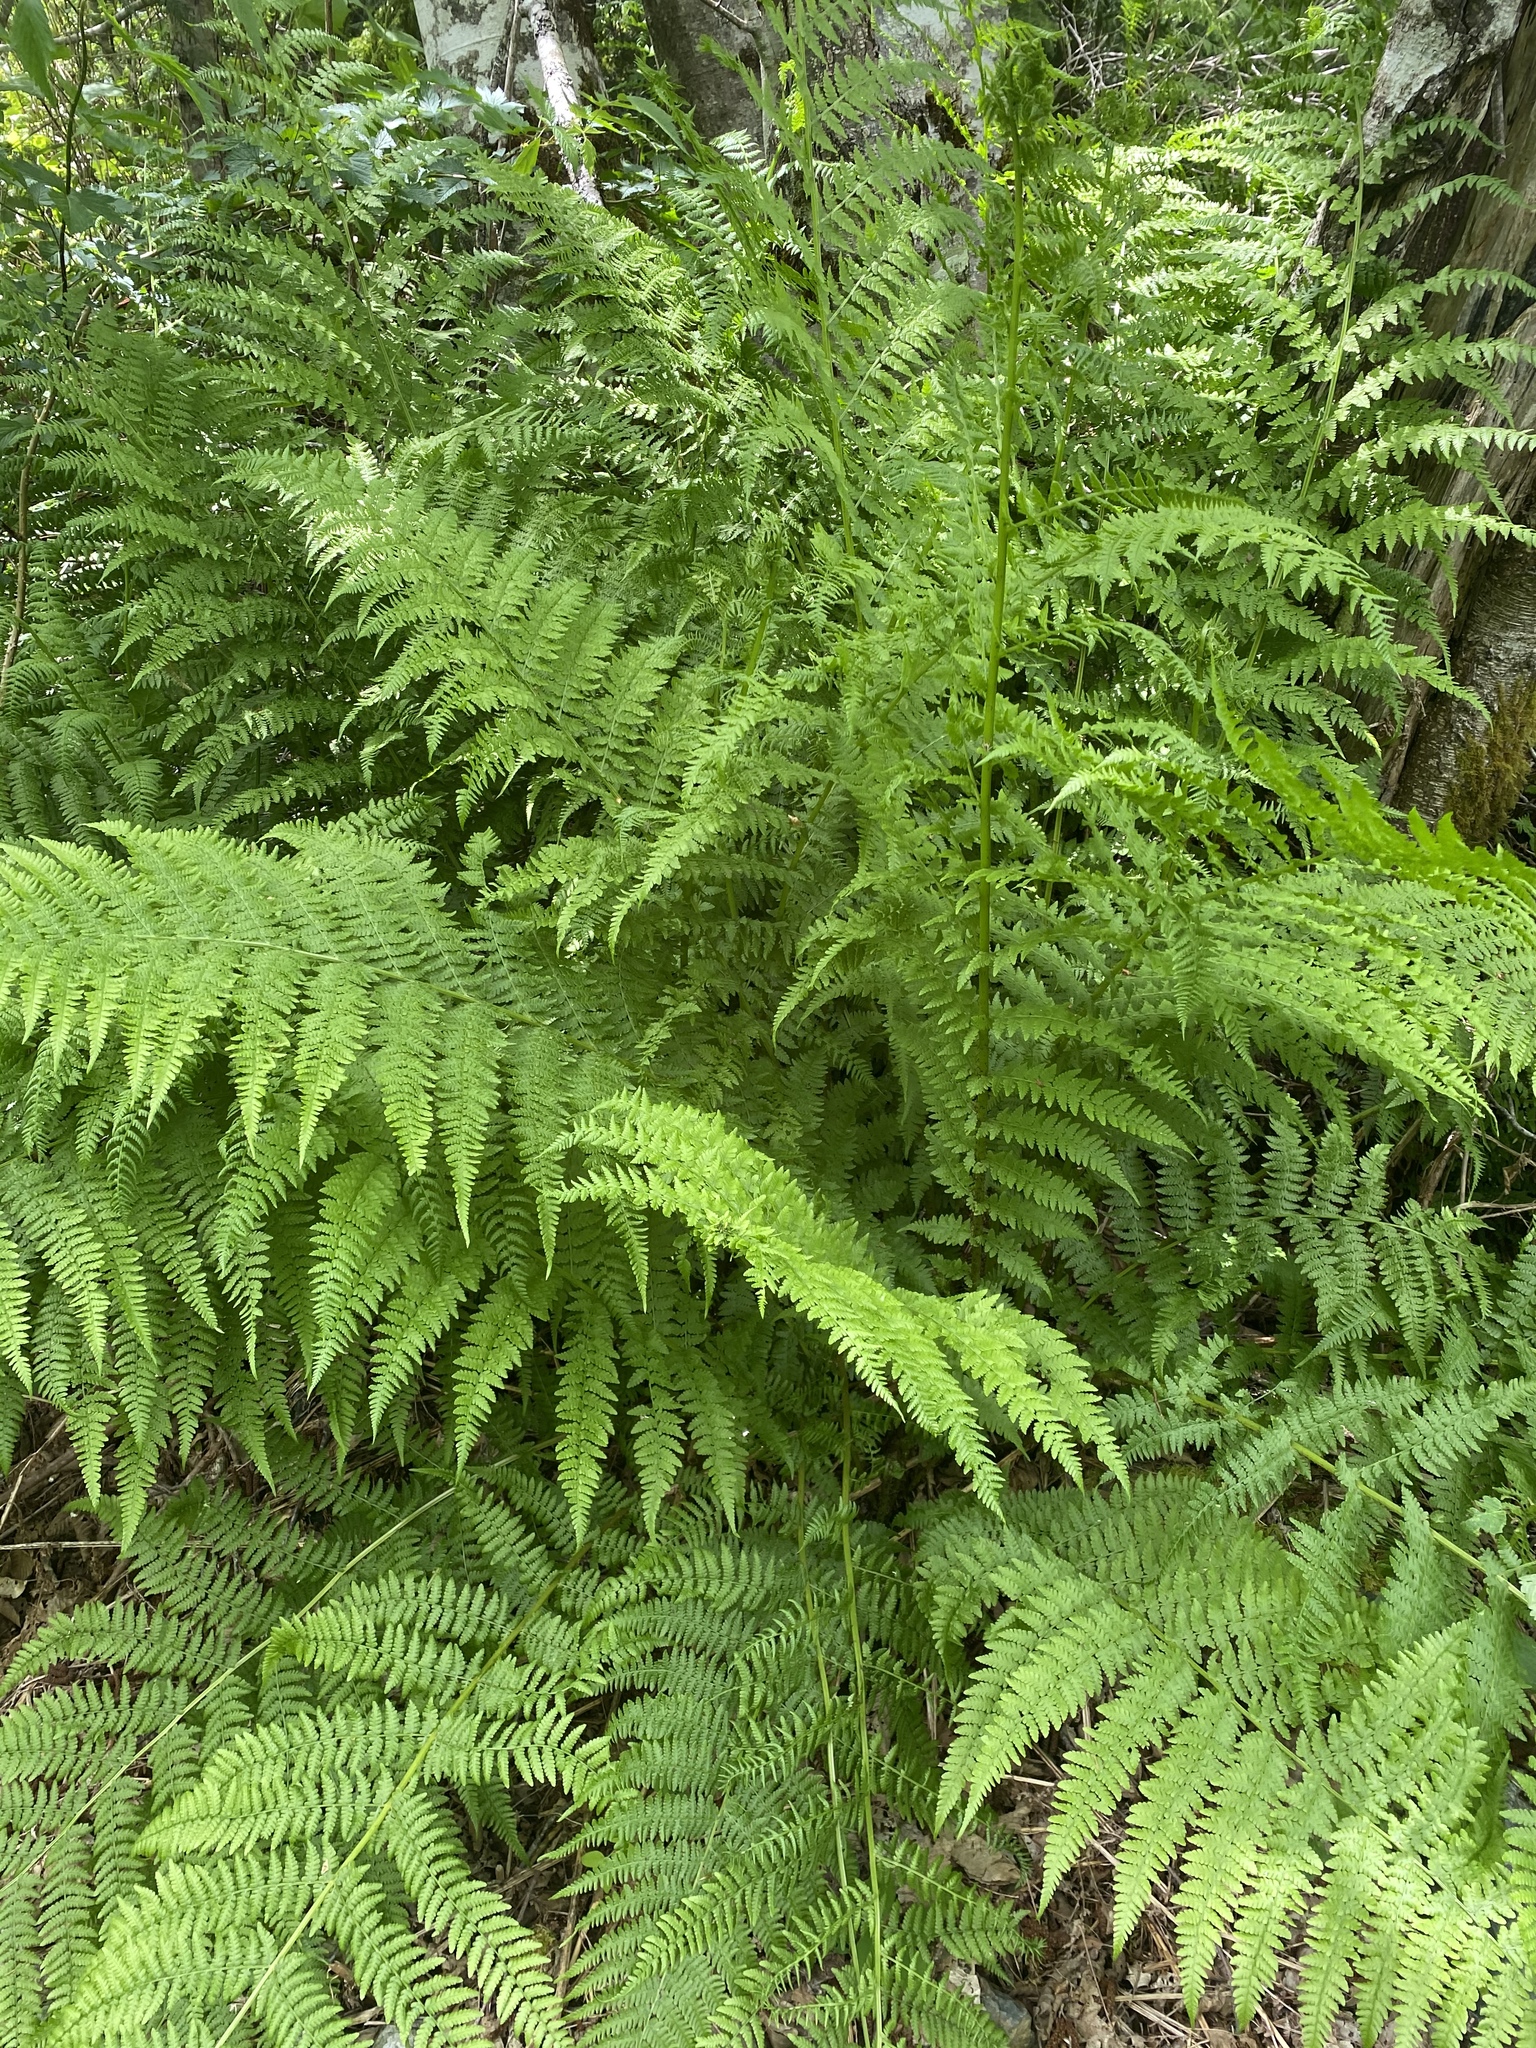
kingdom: Plantae
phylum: Tracheophyta
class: Polypodiopsida
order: Polypodiales
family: Athyriaceae
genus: Athyrium
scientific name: Athyrium filix-femina
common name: Lady fern
